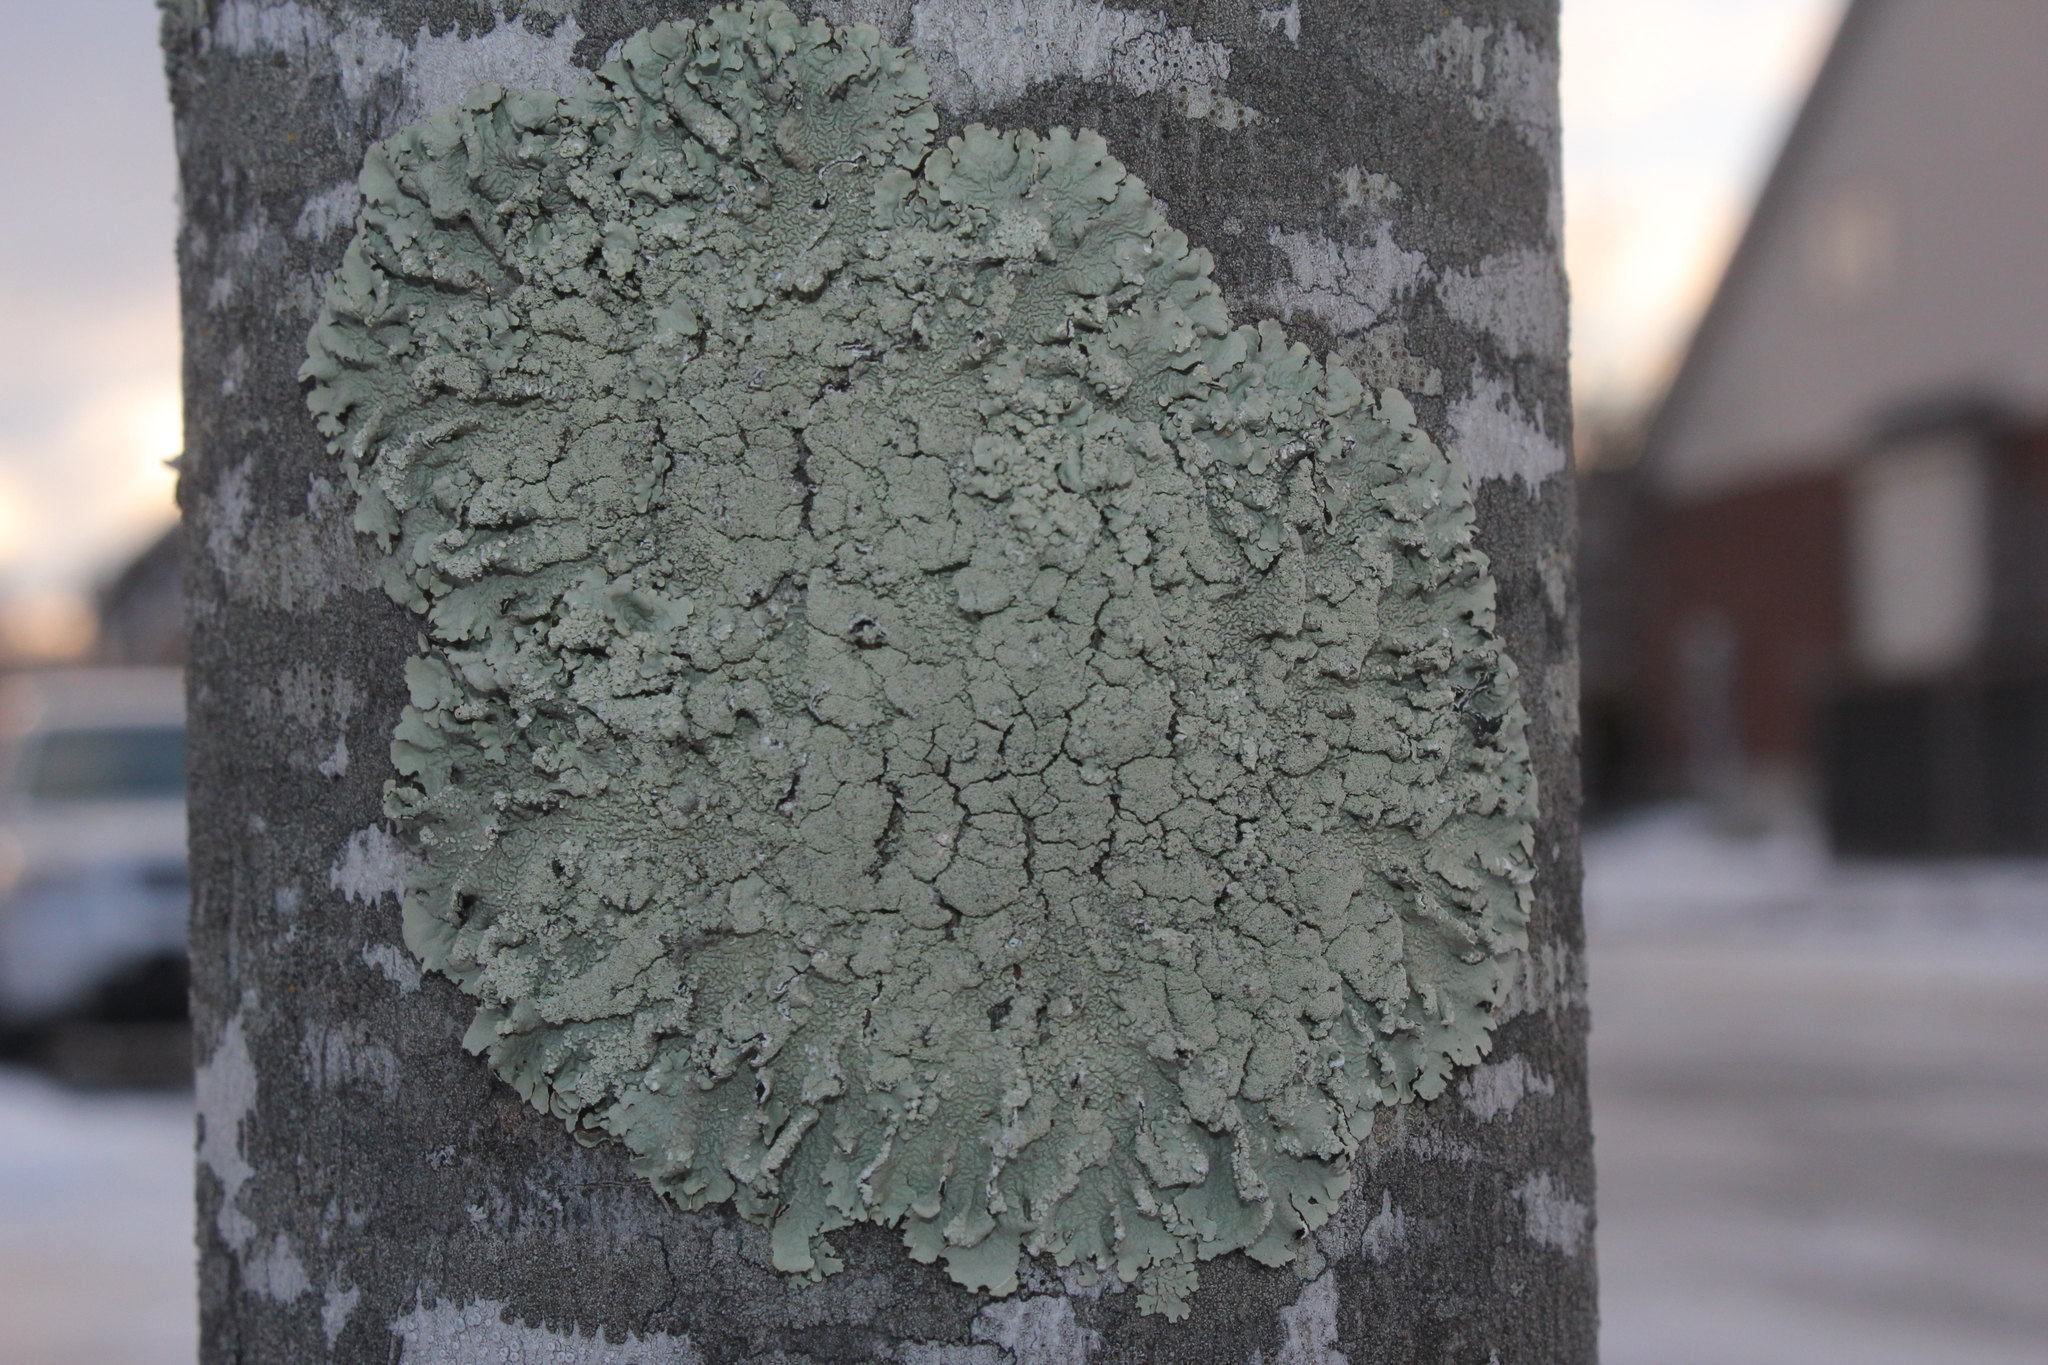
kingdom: Fungi
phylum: Ascomycota
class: Lecanoromycetes
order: Lecanorales
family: Parmeliaceae
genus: Flavoparmelia
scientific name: Flavoparmelia caperata
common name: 40-mile per hour lichen
